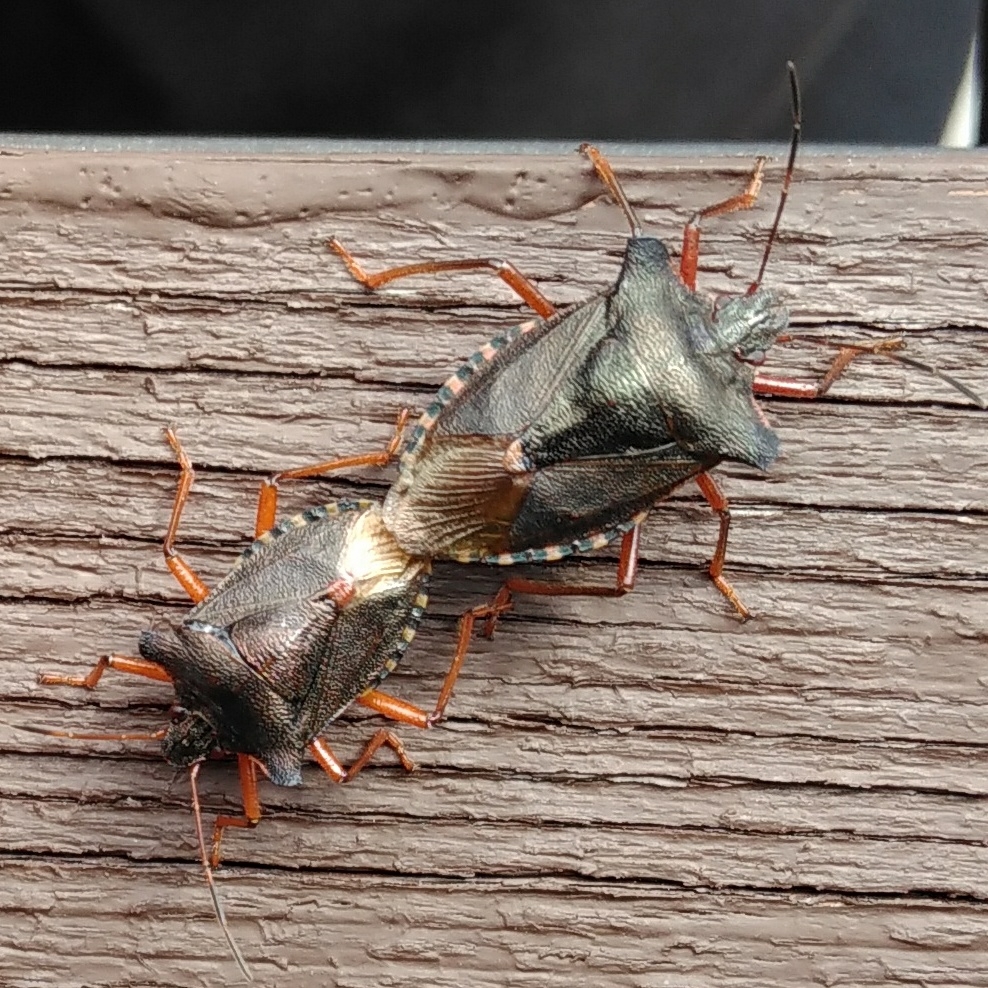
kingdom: Animalia
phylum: Arthropoda
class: Insecta
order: Hemiptera
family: Pentatomidae
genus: Pentatoma
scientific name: Pentatoma rufipes
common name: Forest bug
